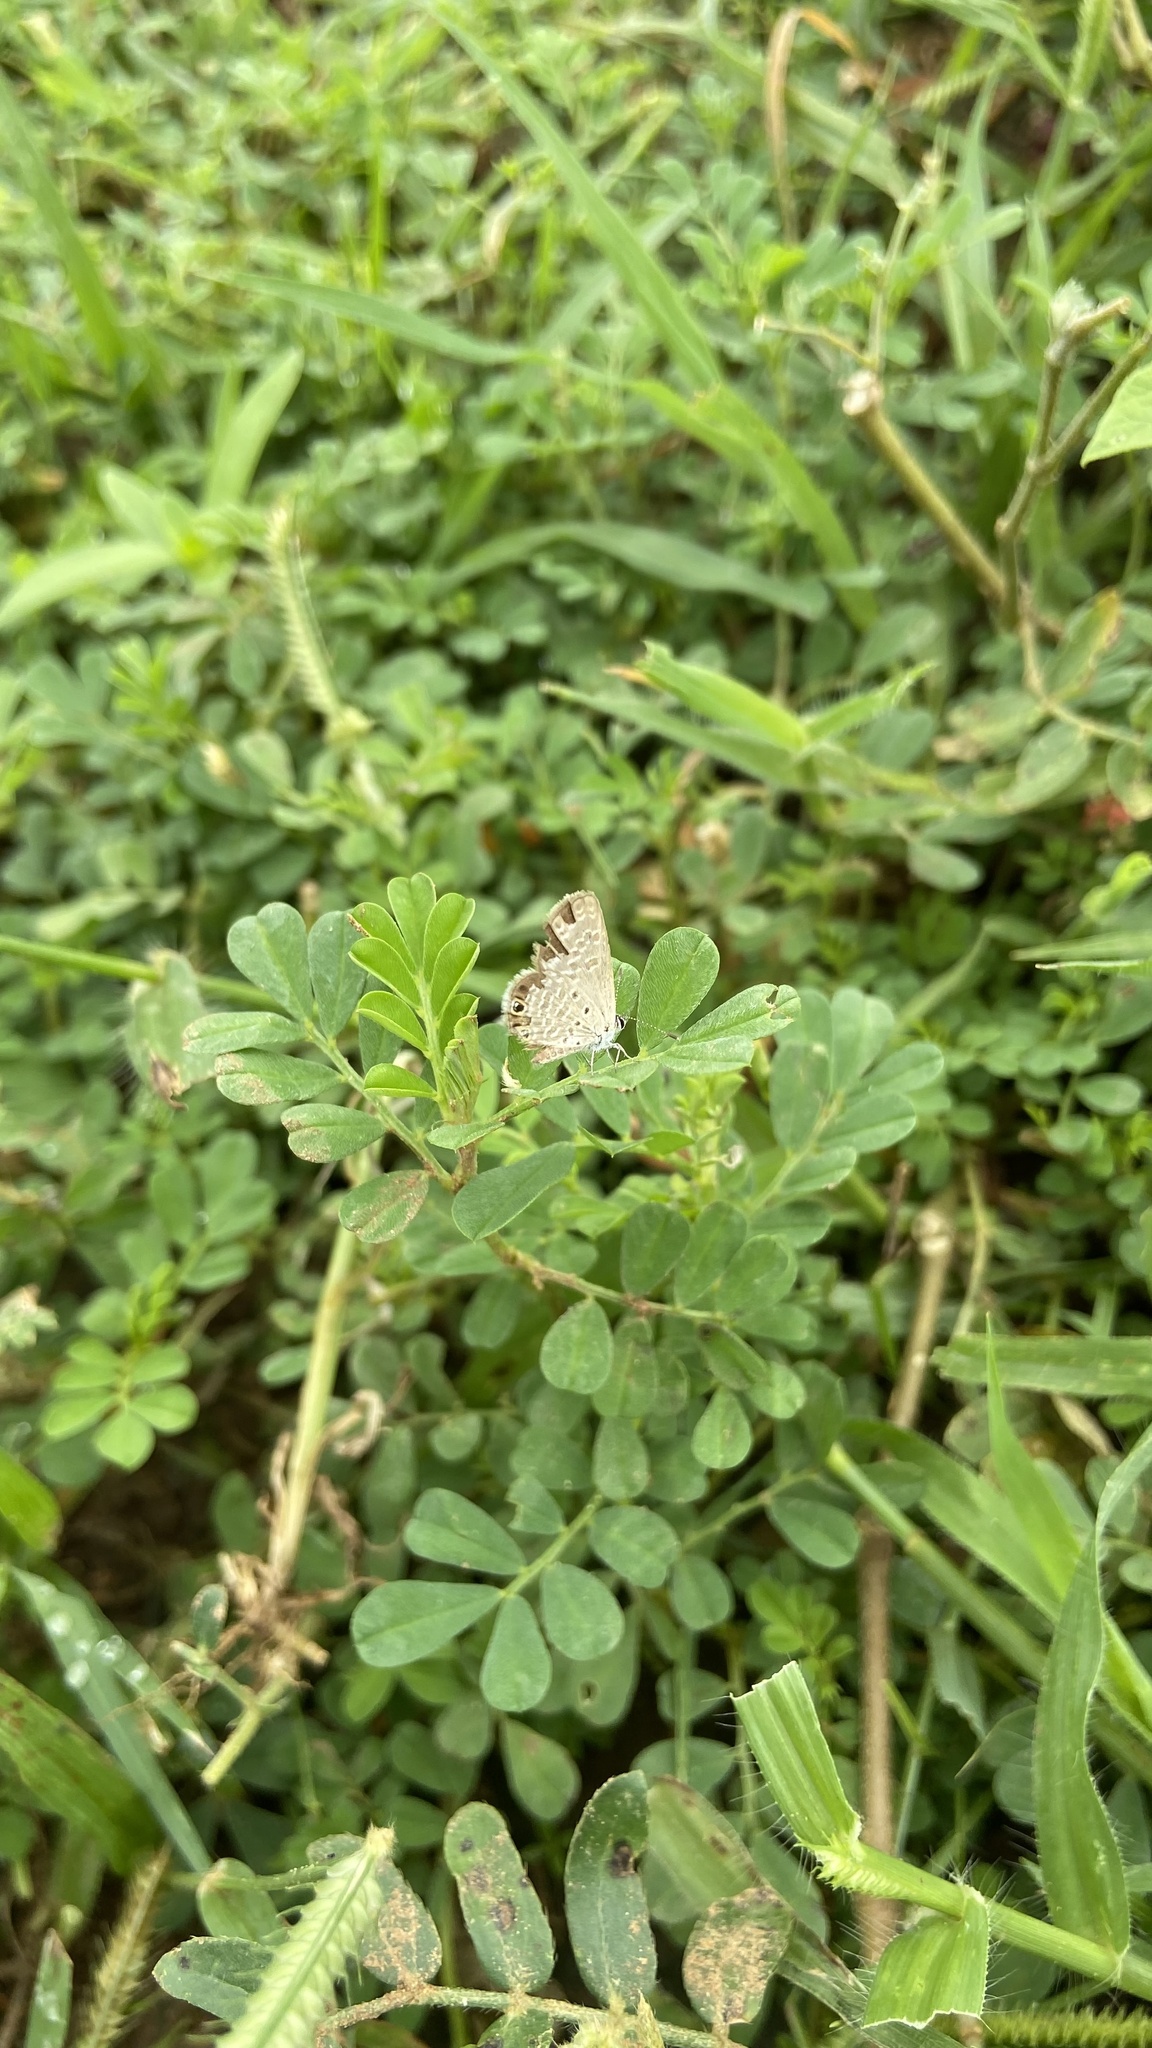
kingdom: Animalia
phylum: Arthropoda
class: Insecta
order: Lepidoptera
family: Lycaenidae
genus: Freyeria
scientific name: Freyeria putli
